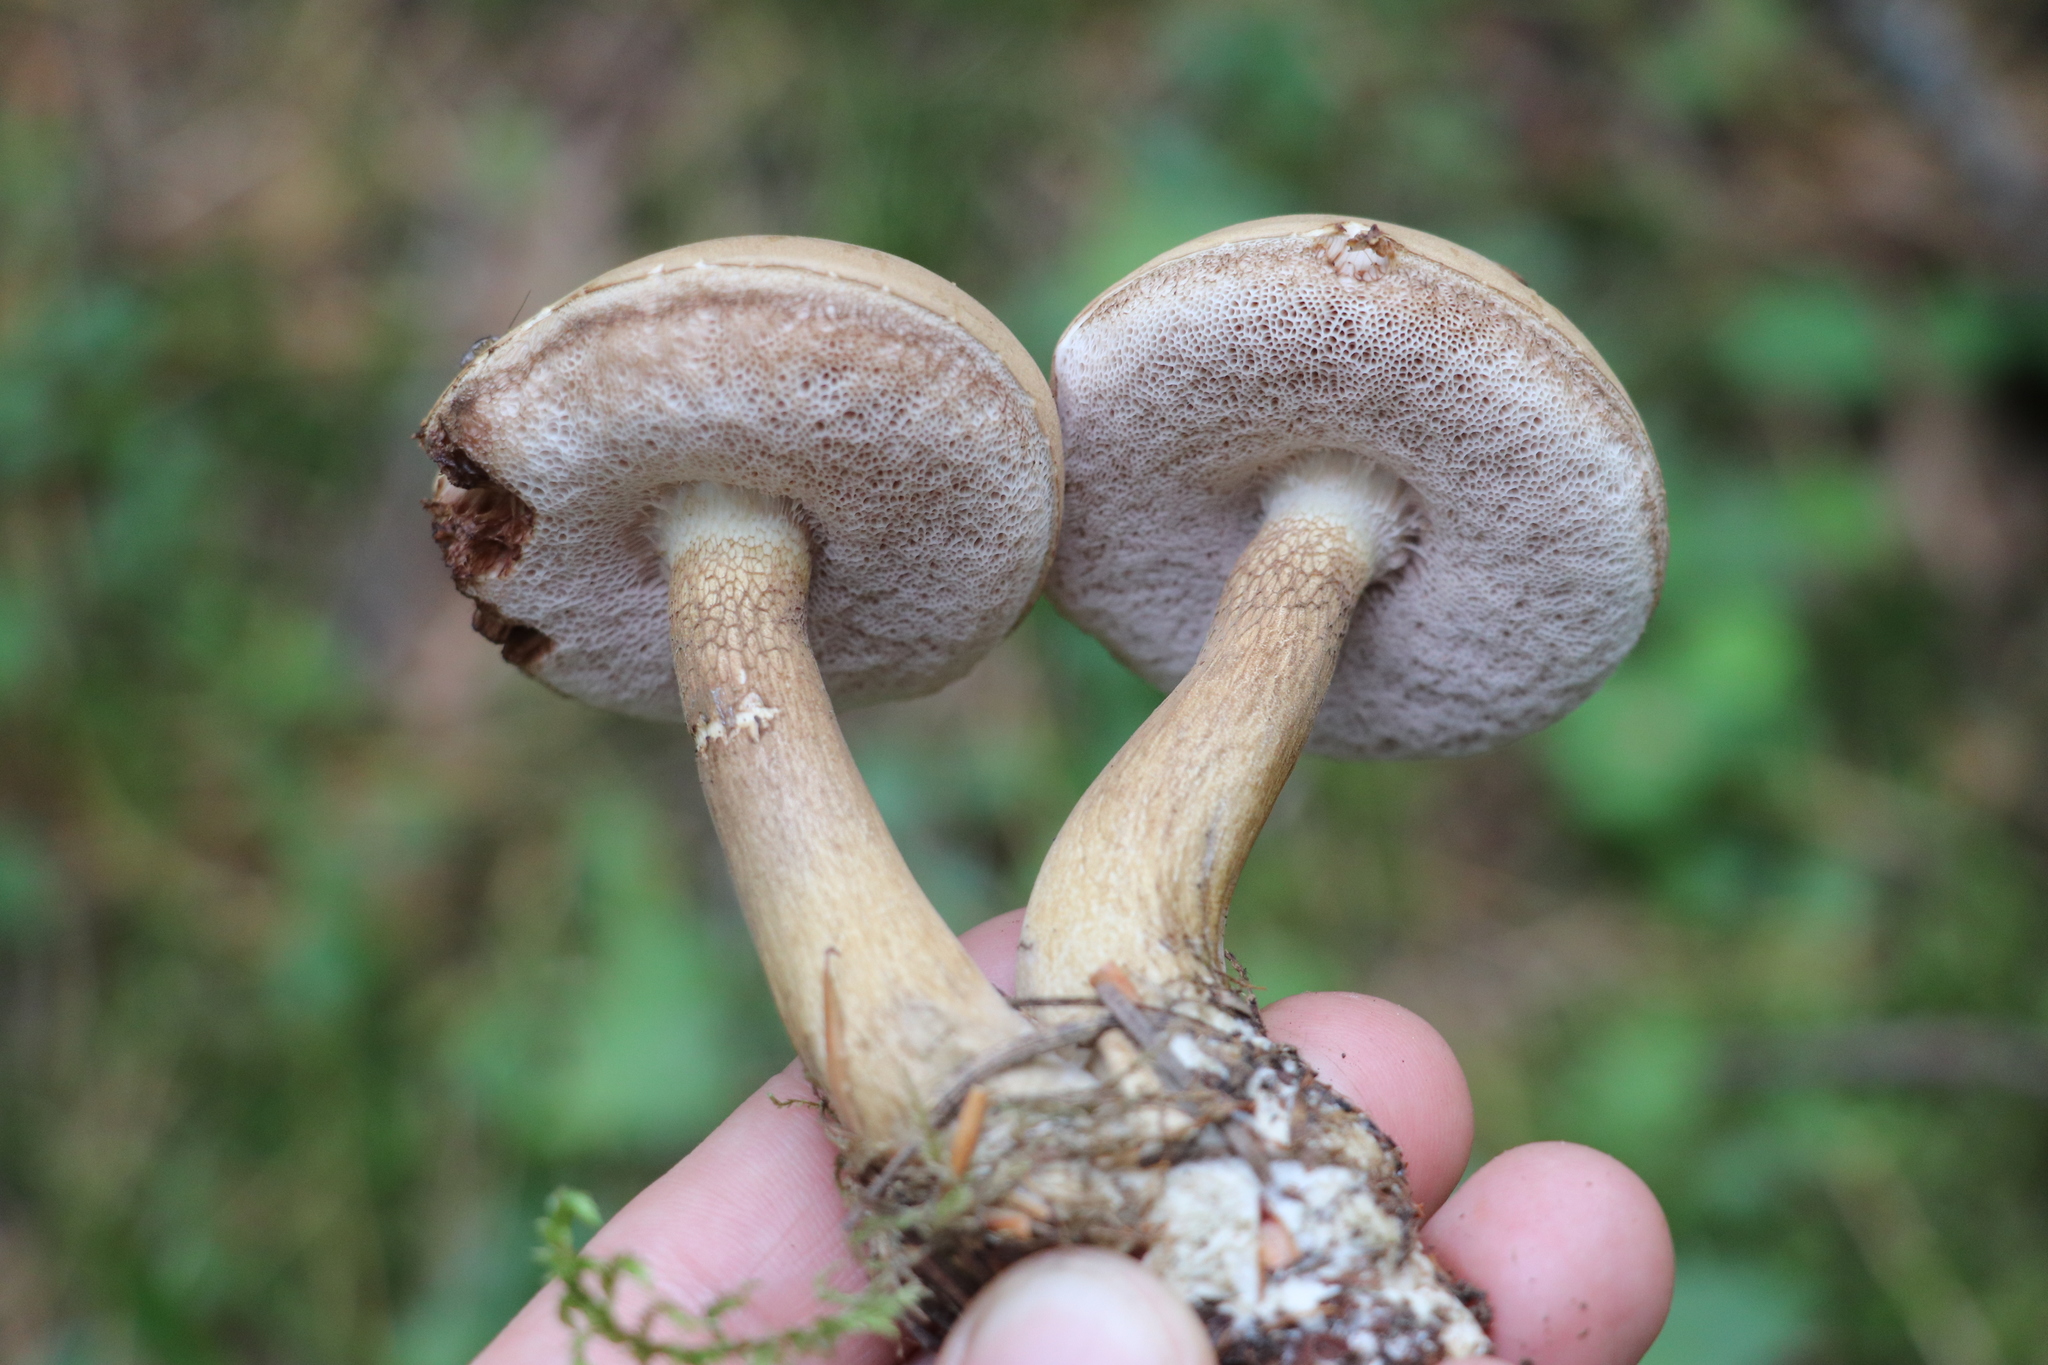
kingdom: Fungi
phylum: Basidiomycota
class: Agaricomycetes
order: Boletales
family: Boletaceae
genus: Tylopilus
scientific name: Tylopilus felleus
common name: Bitter bolete
